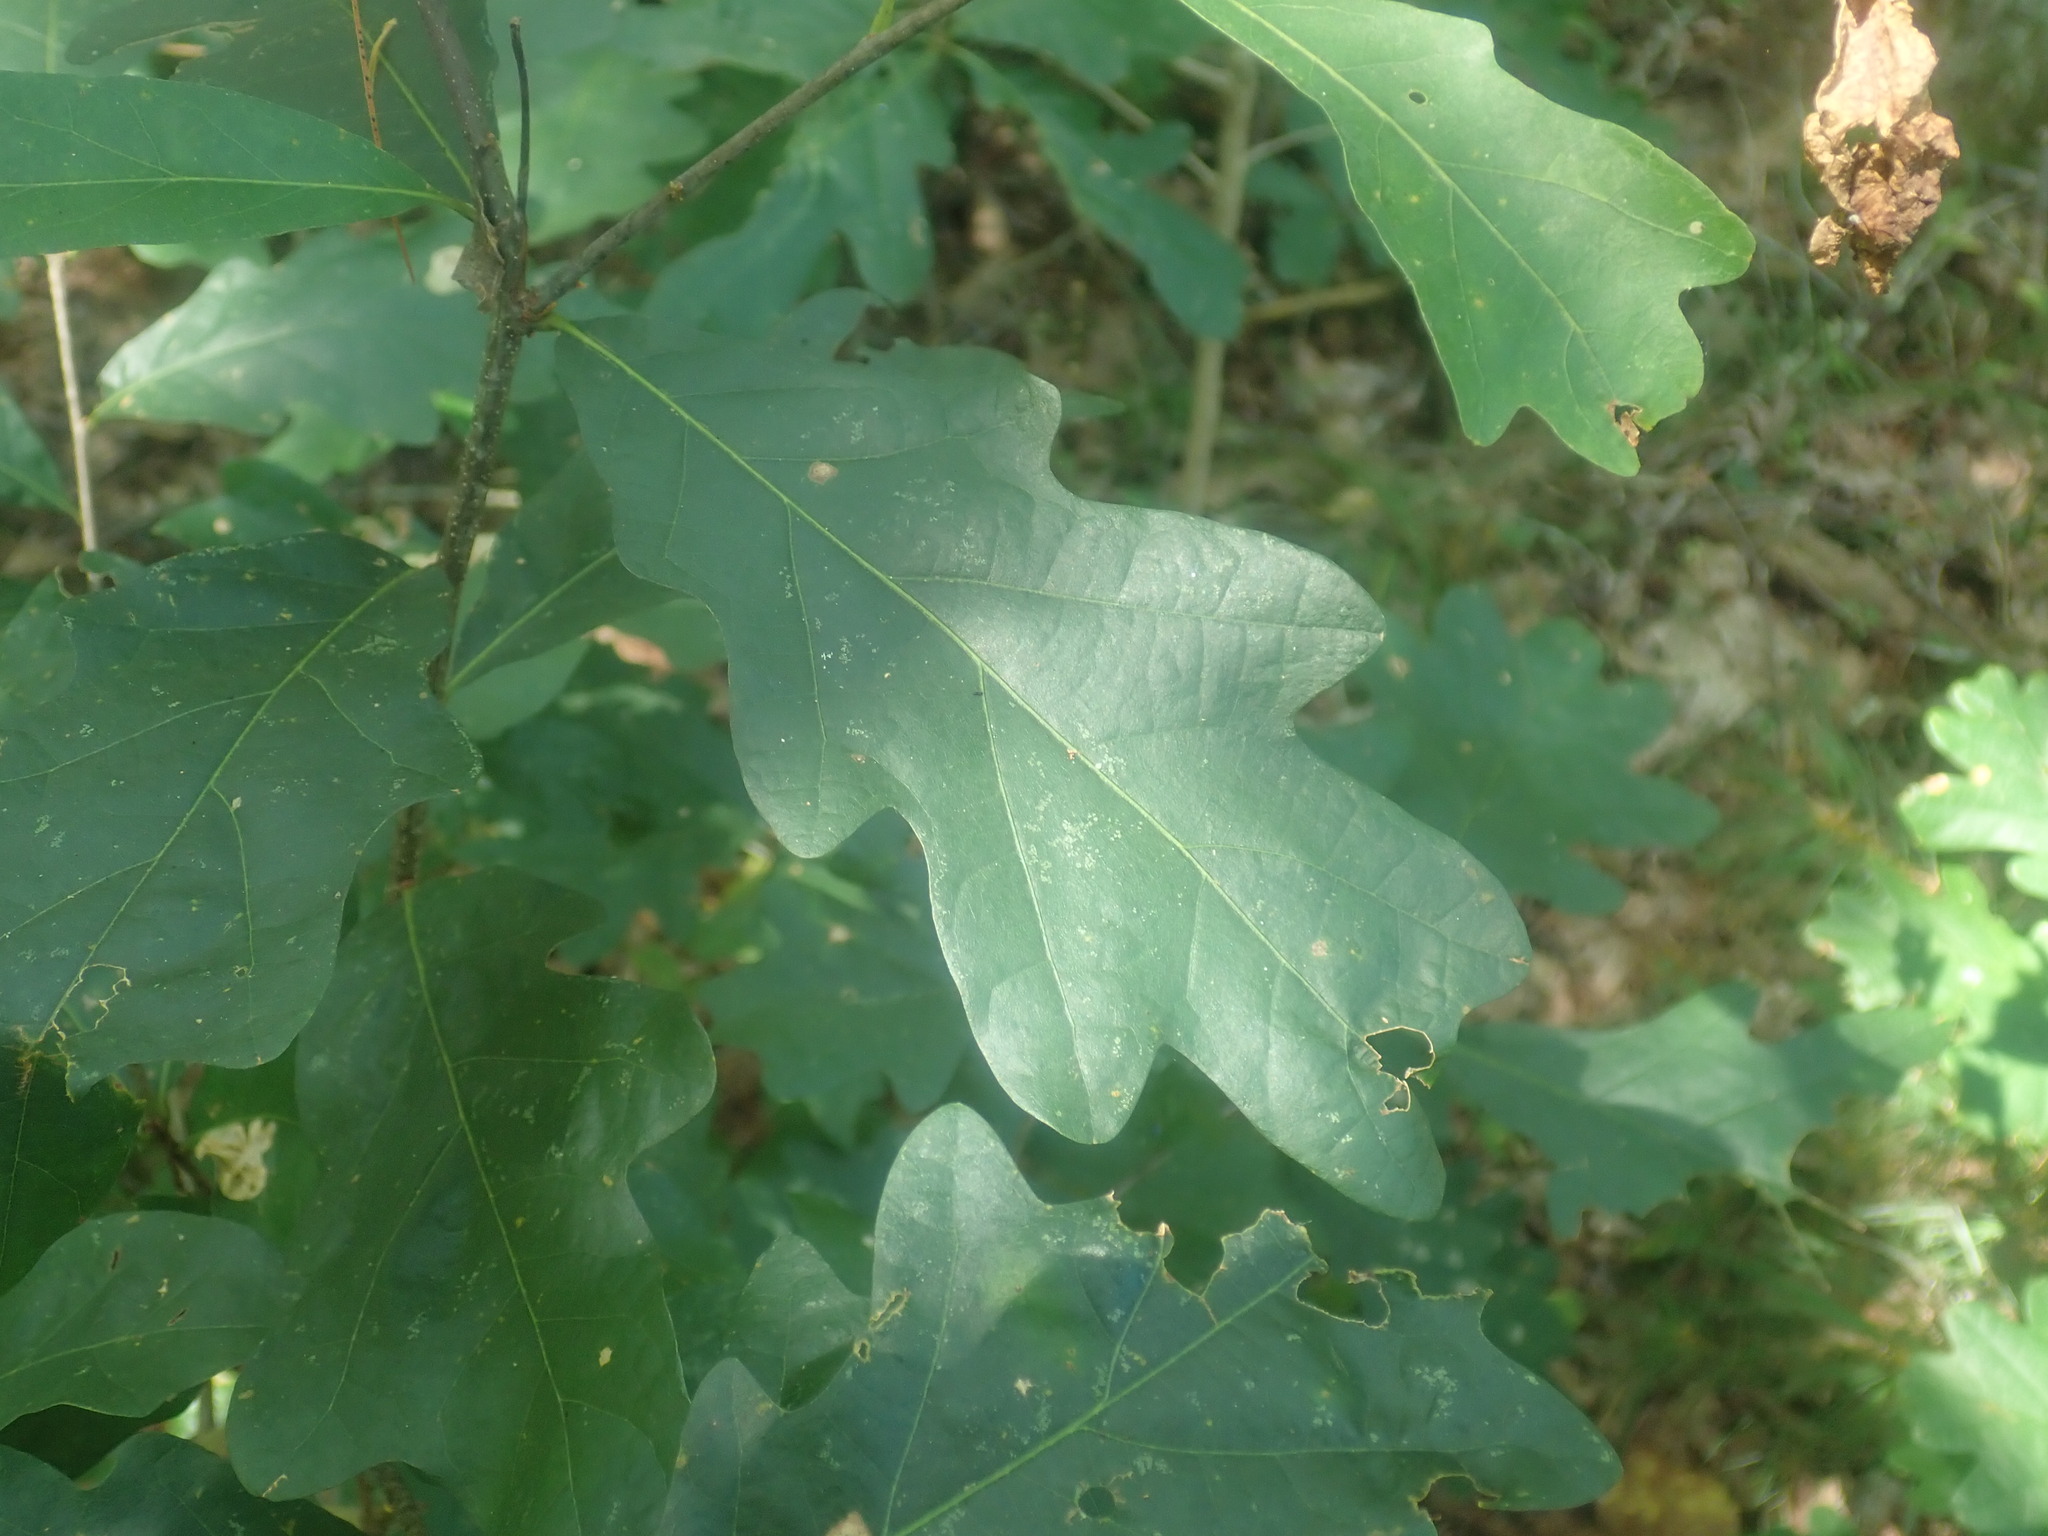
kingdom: Plantae
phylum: Tracheophyta
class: Magnoliopsida
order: Fagales
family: Fagaceae
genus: Quercus
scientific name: Quercus alba
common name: White oak
